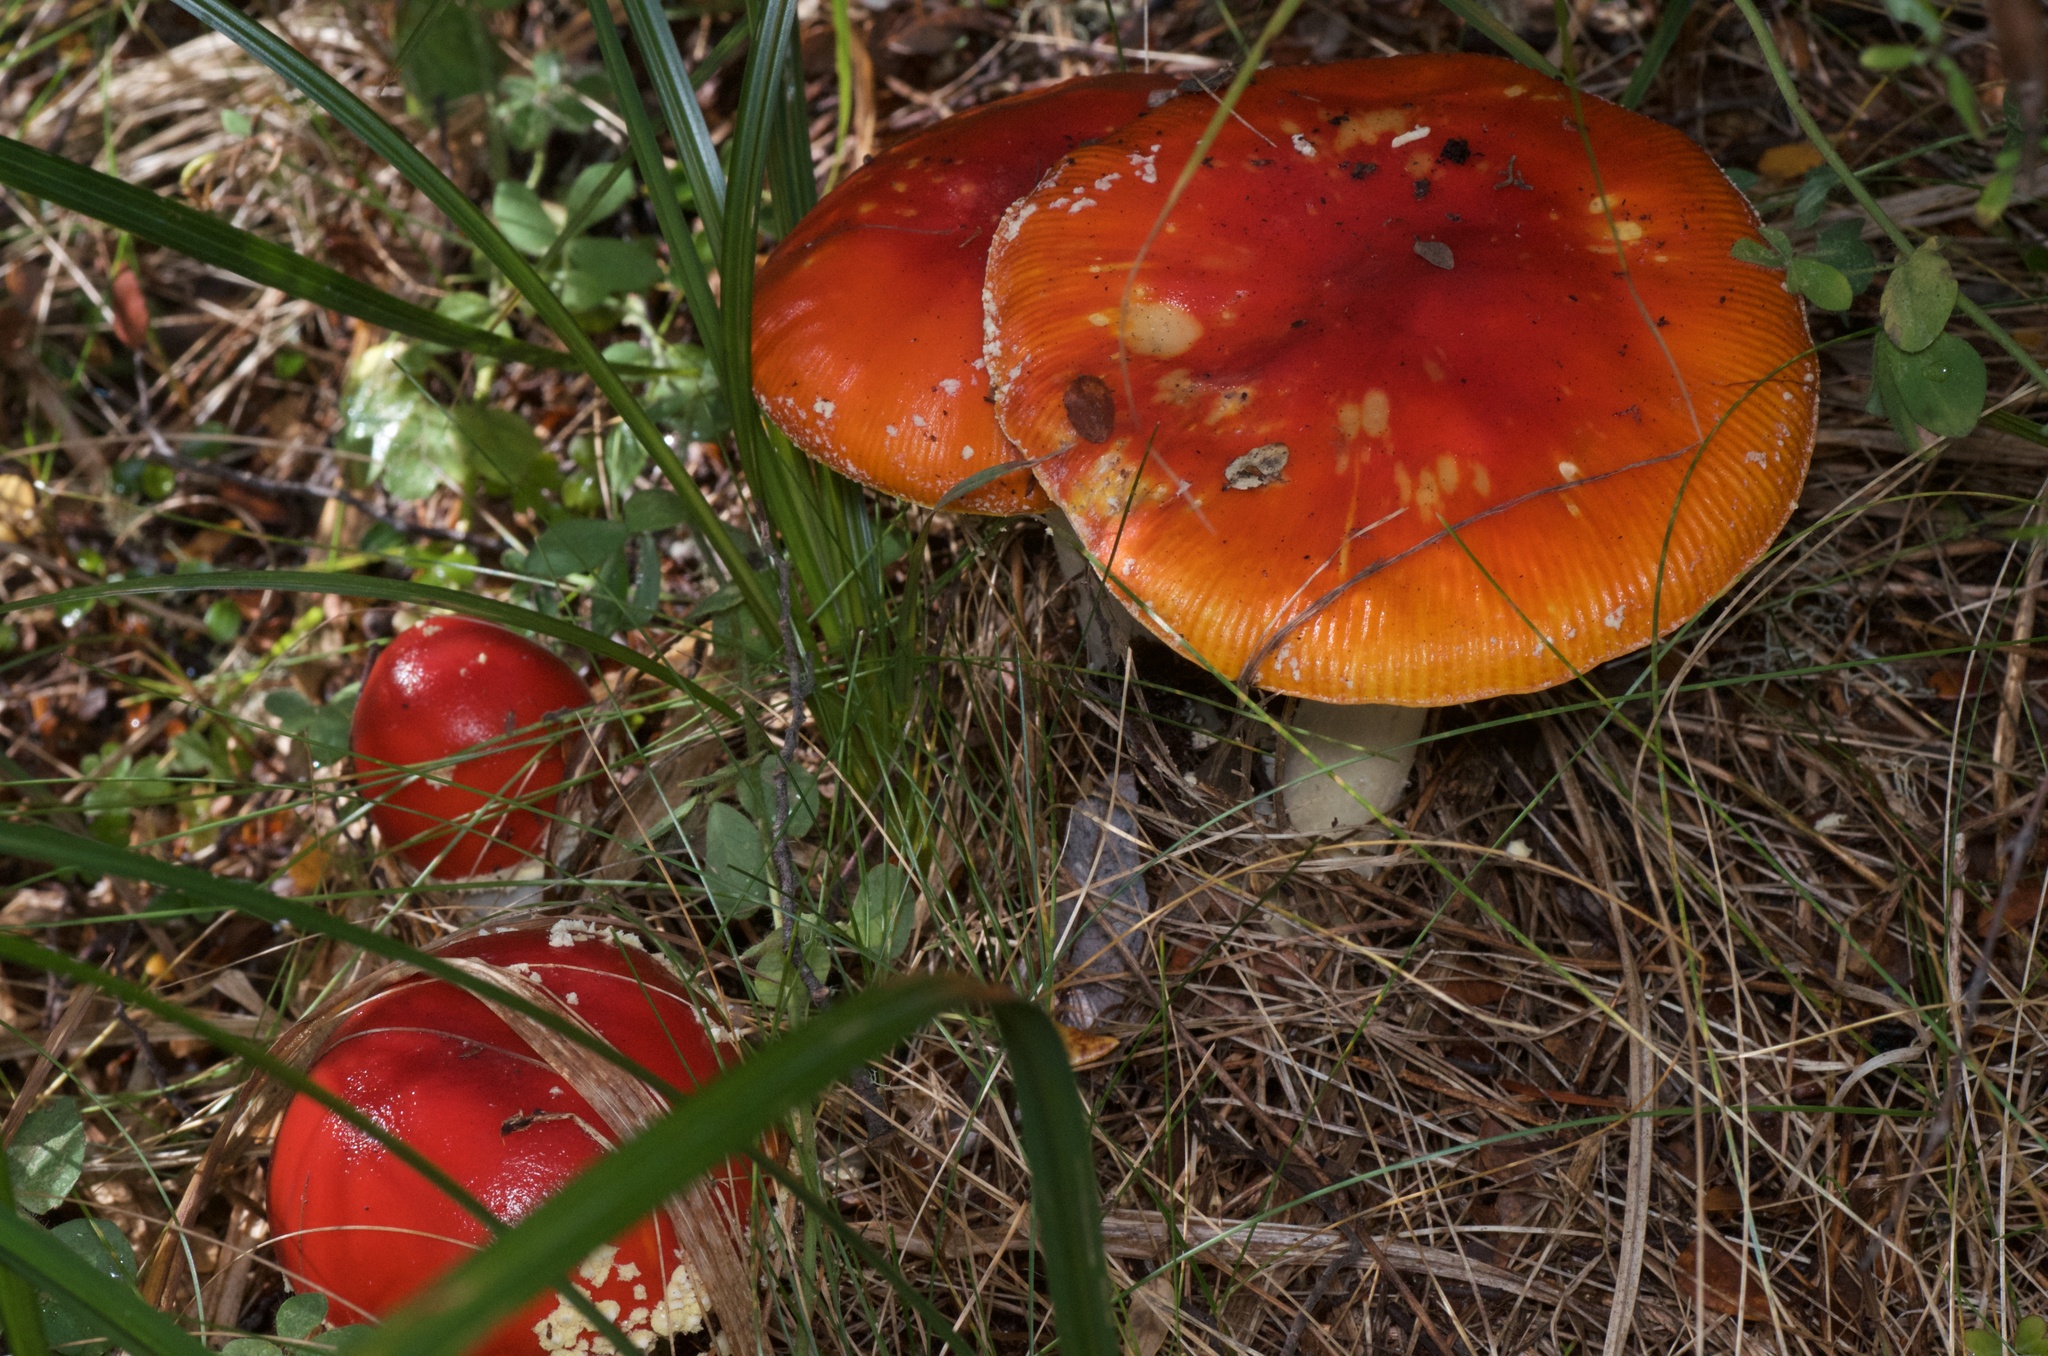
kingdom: Fungi
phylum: Basidiomycota
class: Agaricomycetes
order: Agaricales
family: Amanitaceae
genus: Amanita
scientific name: Amanita muscaria
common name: Fly agaric
